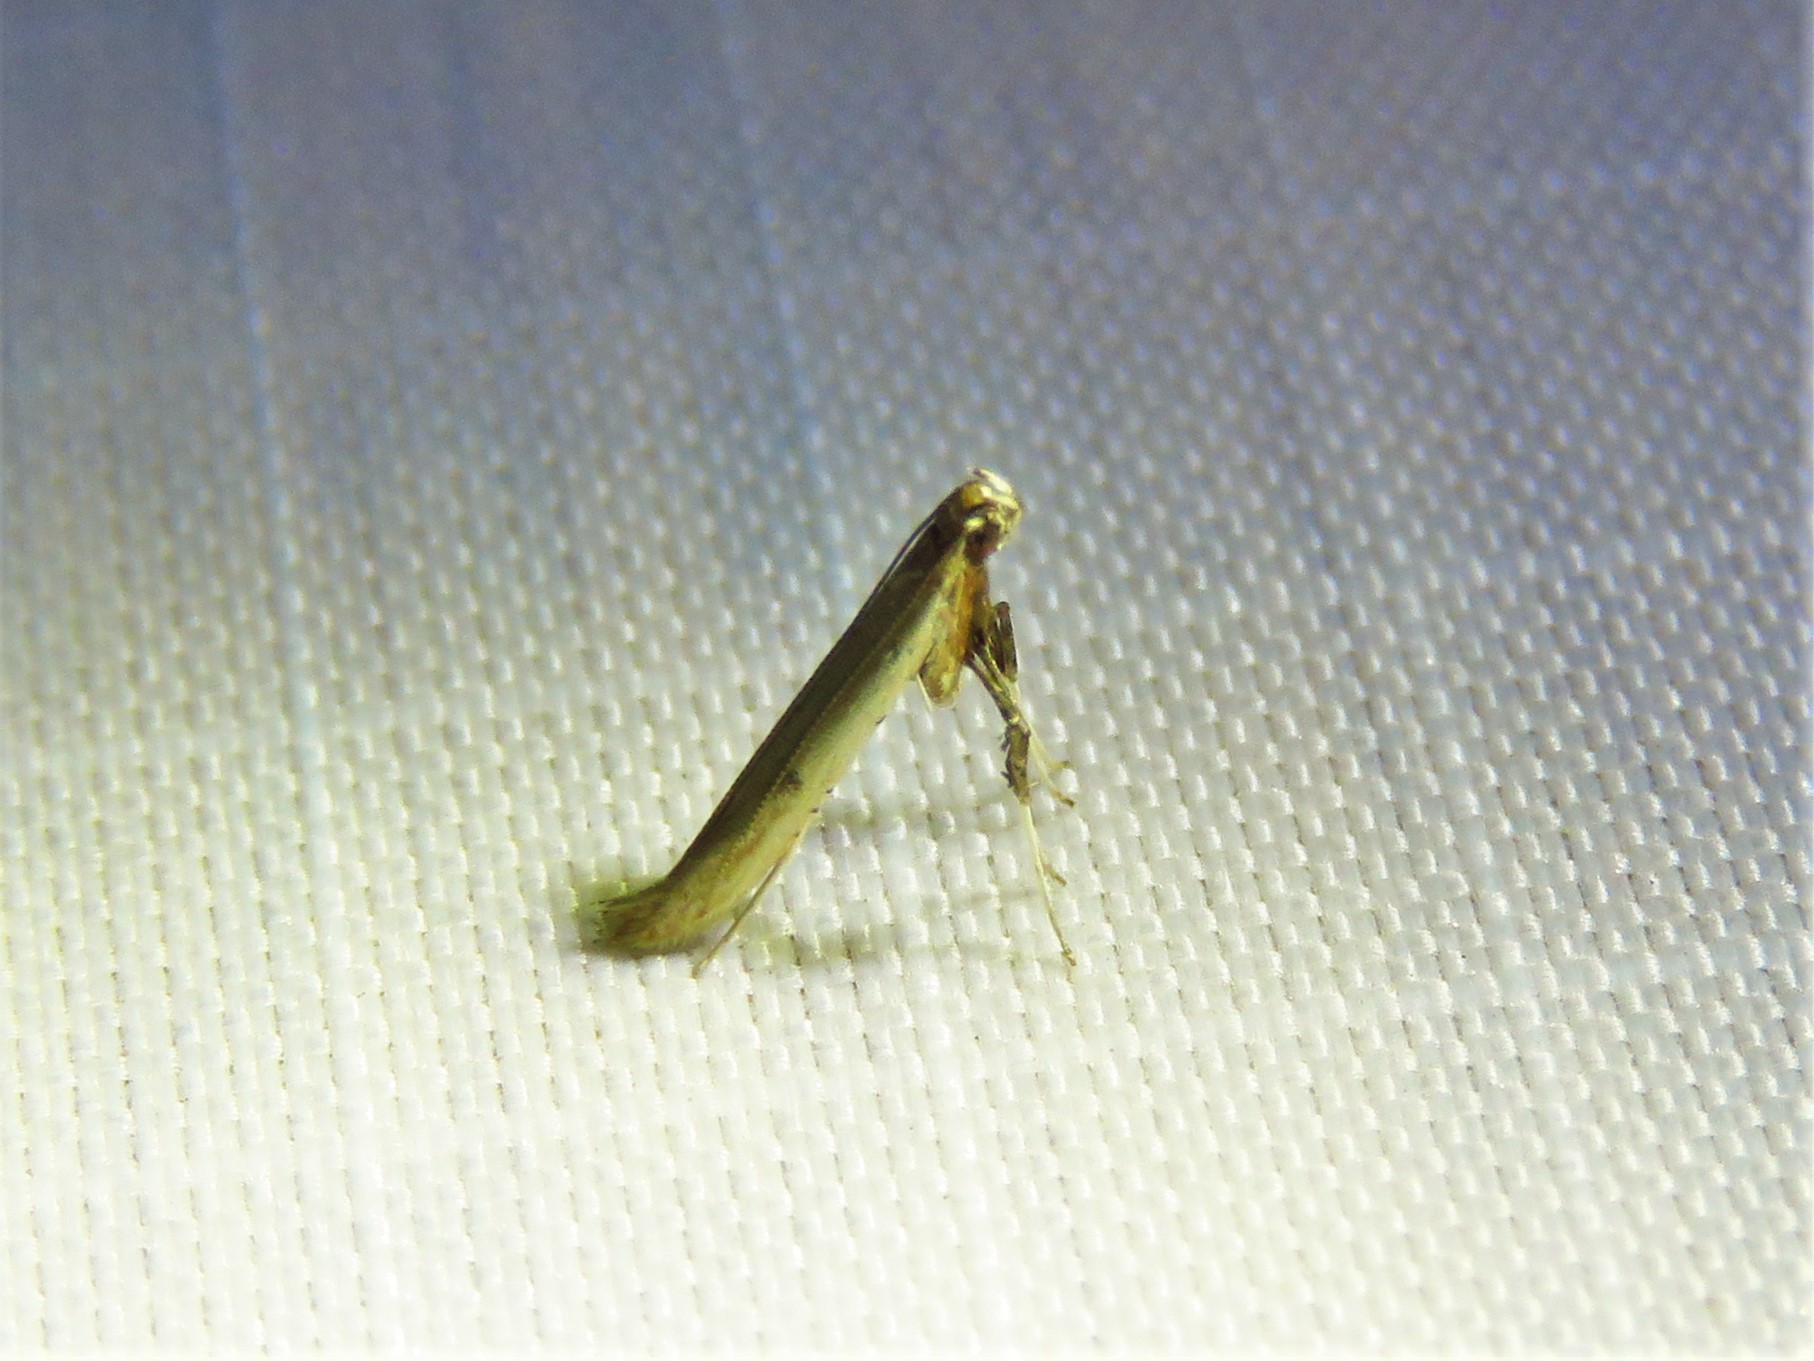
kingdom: Animalia
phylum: Arthropoda
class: Insecta
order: Lepidoptera
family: Gracillariidae
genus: Caloptilia
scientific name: Caloptilia violacella
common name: Tick-trefoil caloptilia moth
